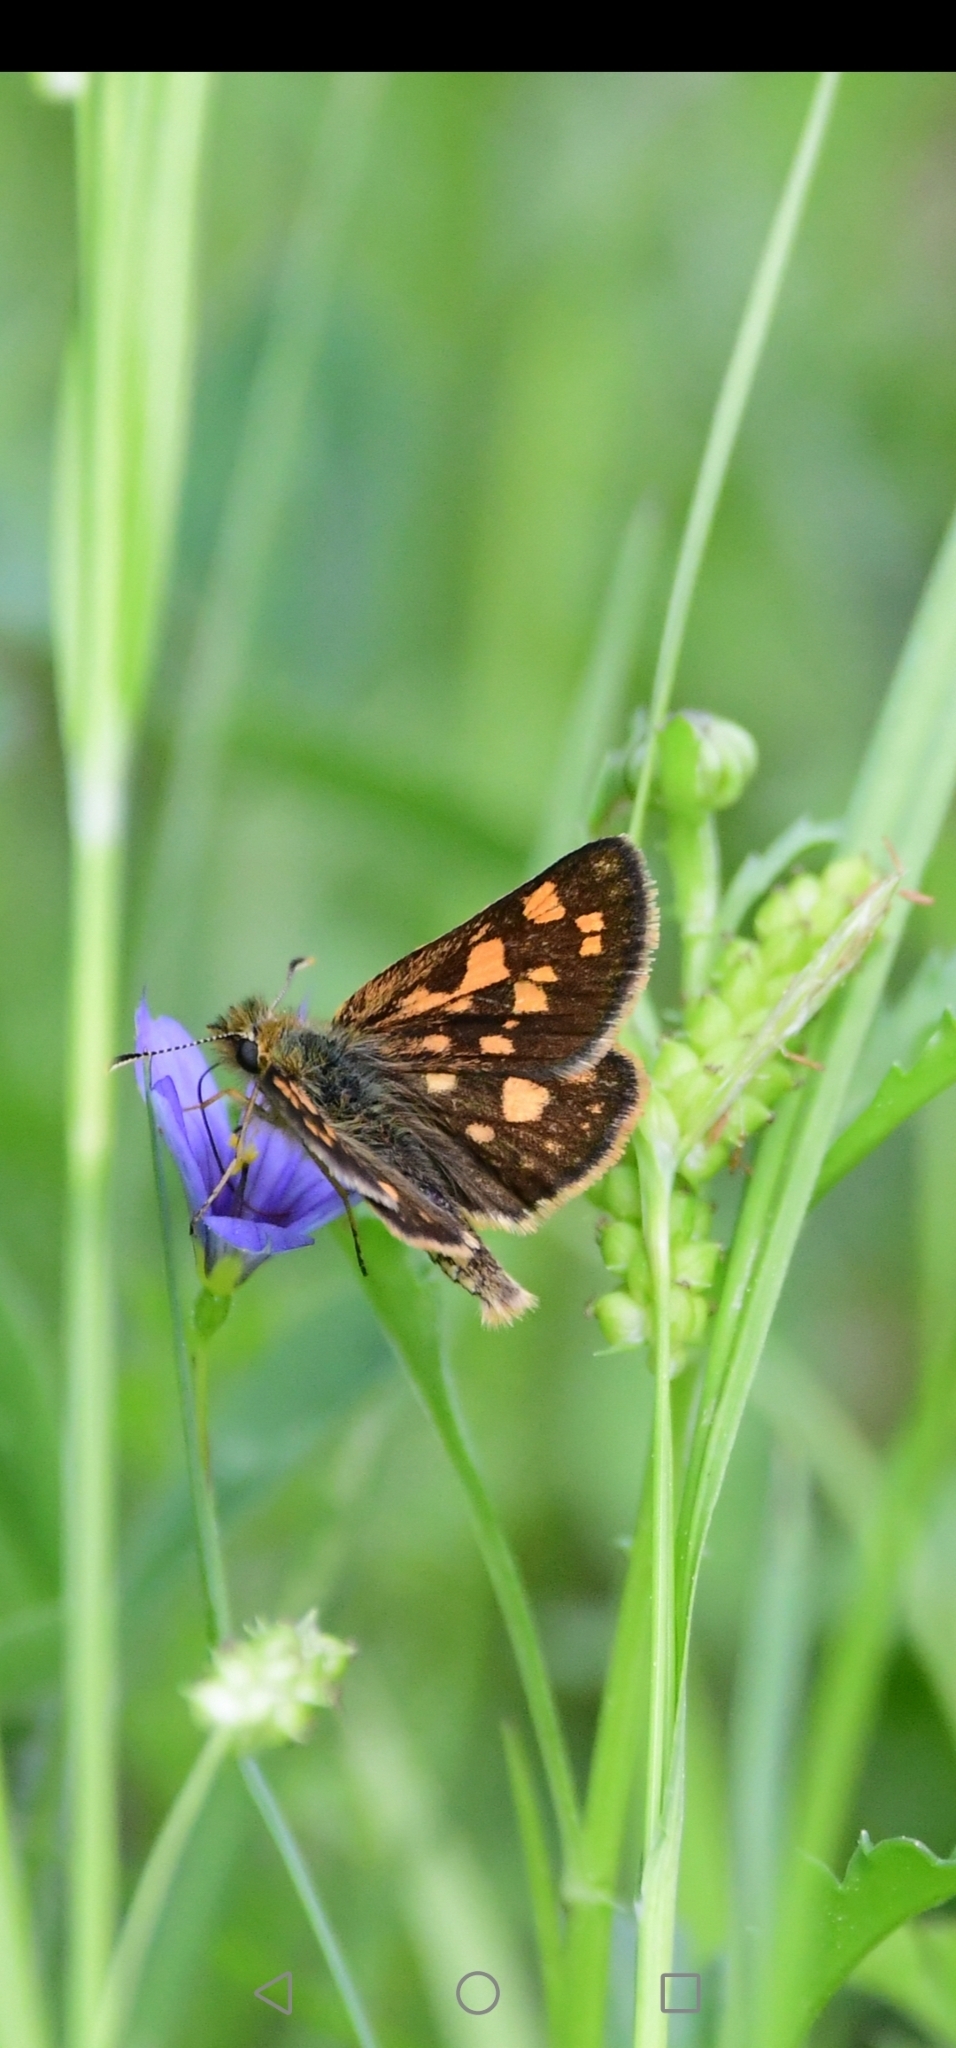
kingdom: Animalia
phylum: Arthropoda
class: Insecta
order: Lepidoptera
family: Hesperiidae
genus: Carterocephalus
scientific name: Carterocephalus mandan
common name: Arctic skipperling
